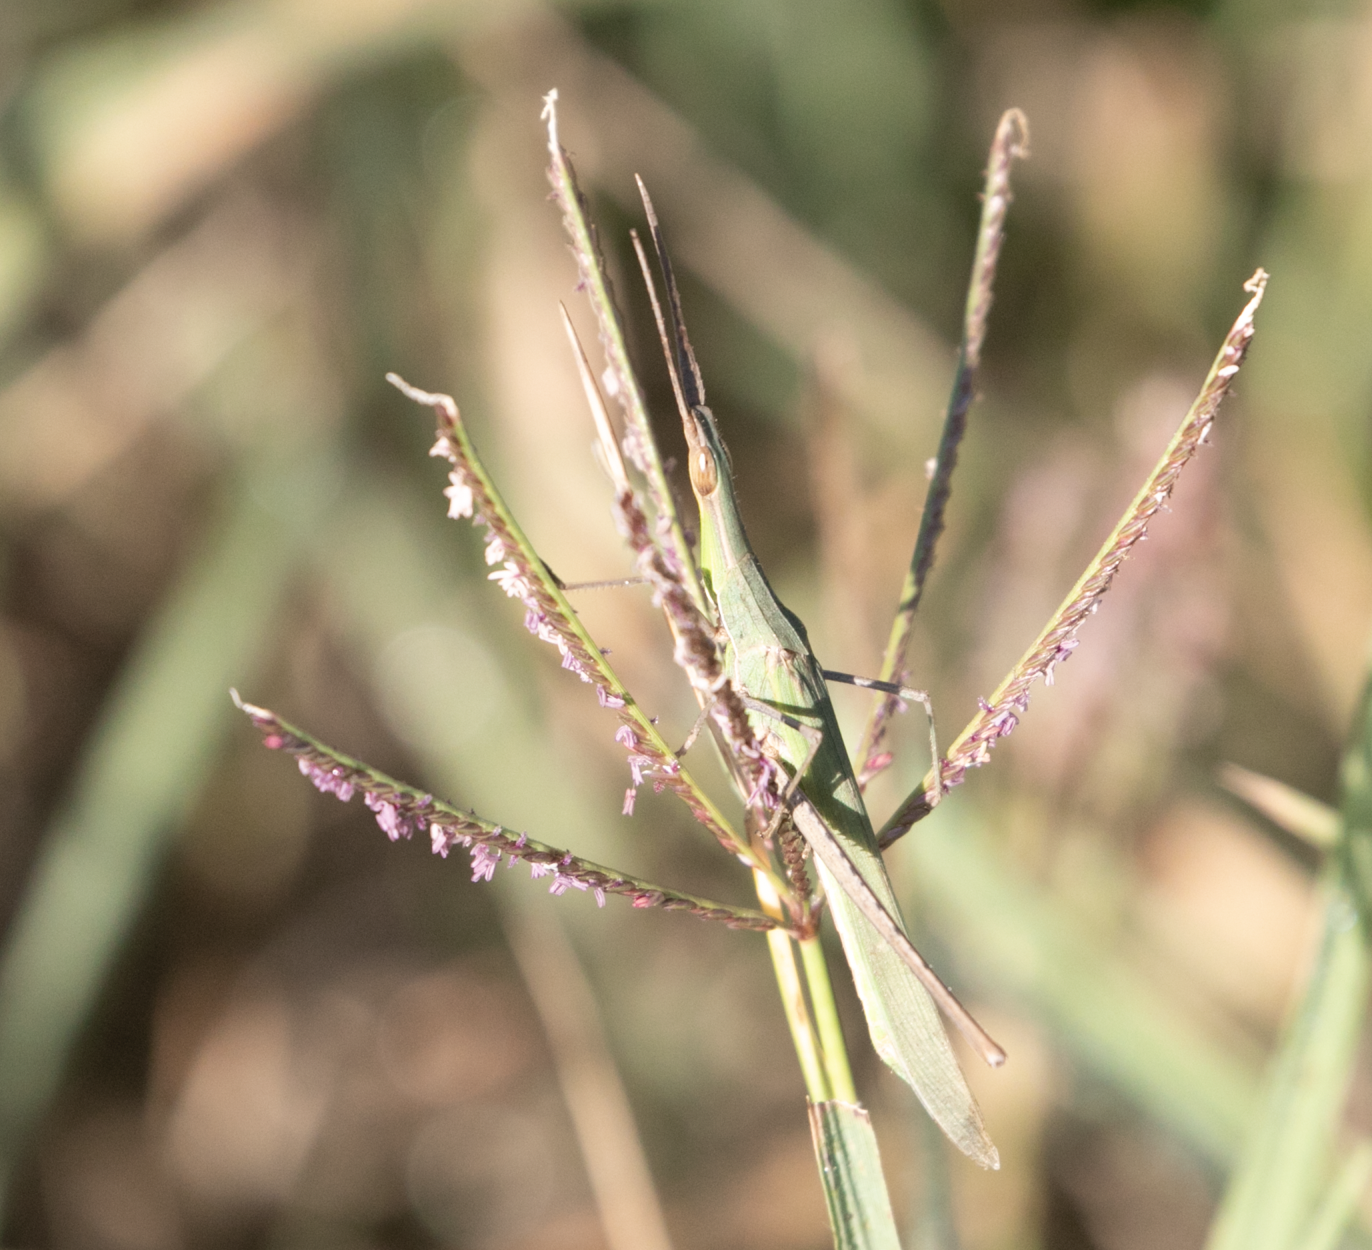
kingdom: Animalia
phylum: Arthropoda
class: Insecta
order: Orthoptera
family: Acrididae
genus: Acrida
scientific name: Acrida ungarica
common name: Common cone-headed grasshopper
